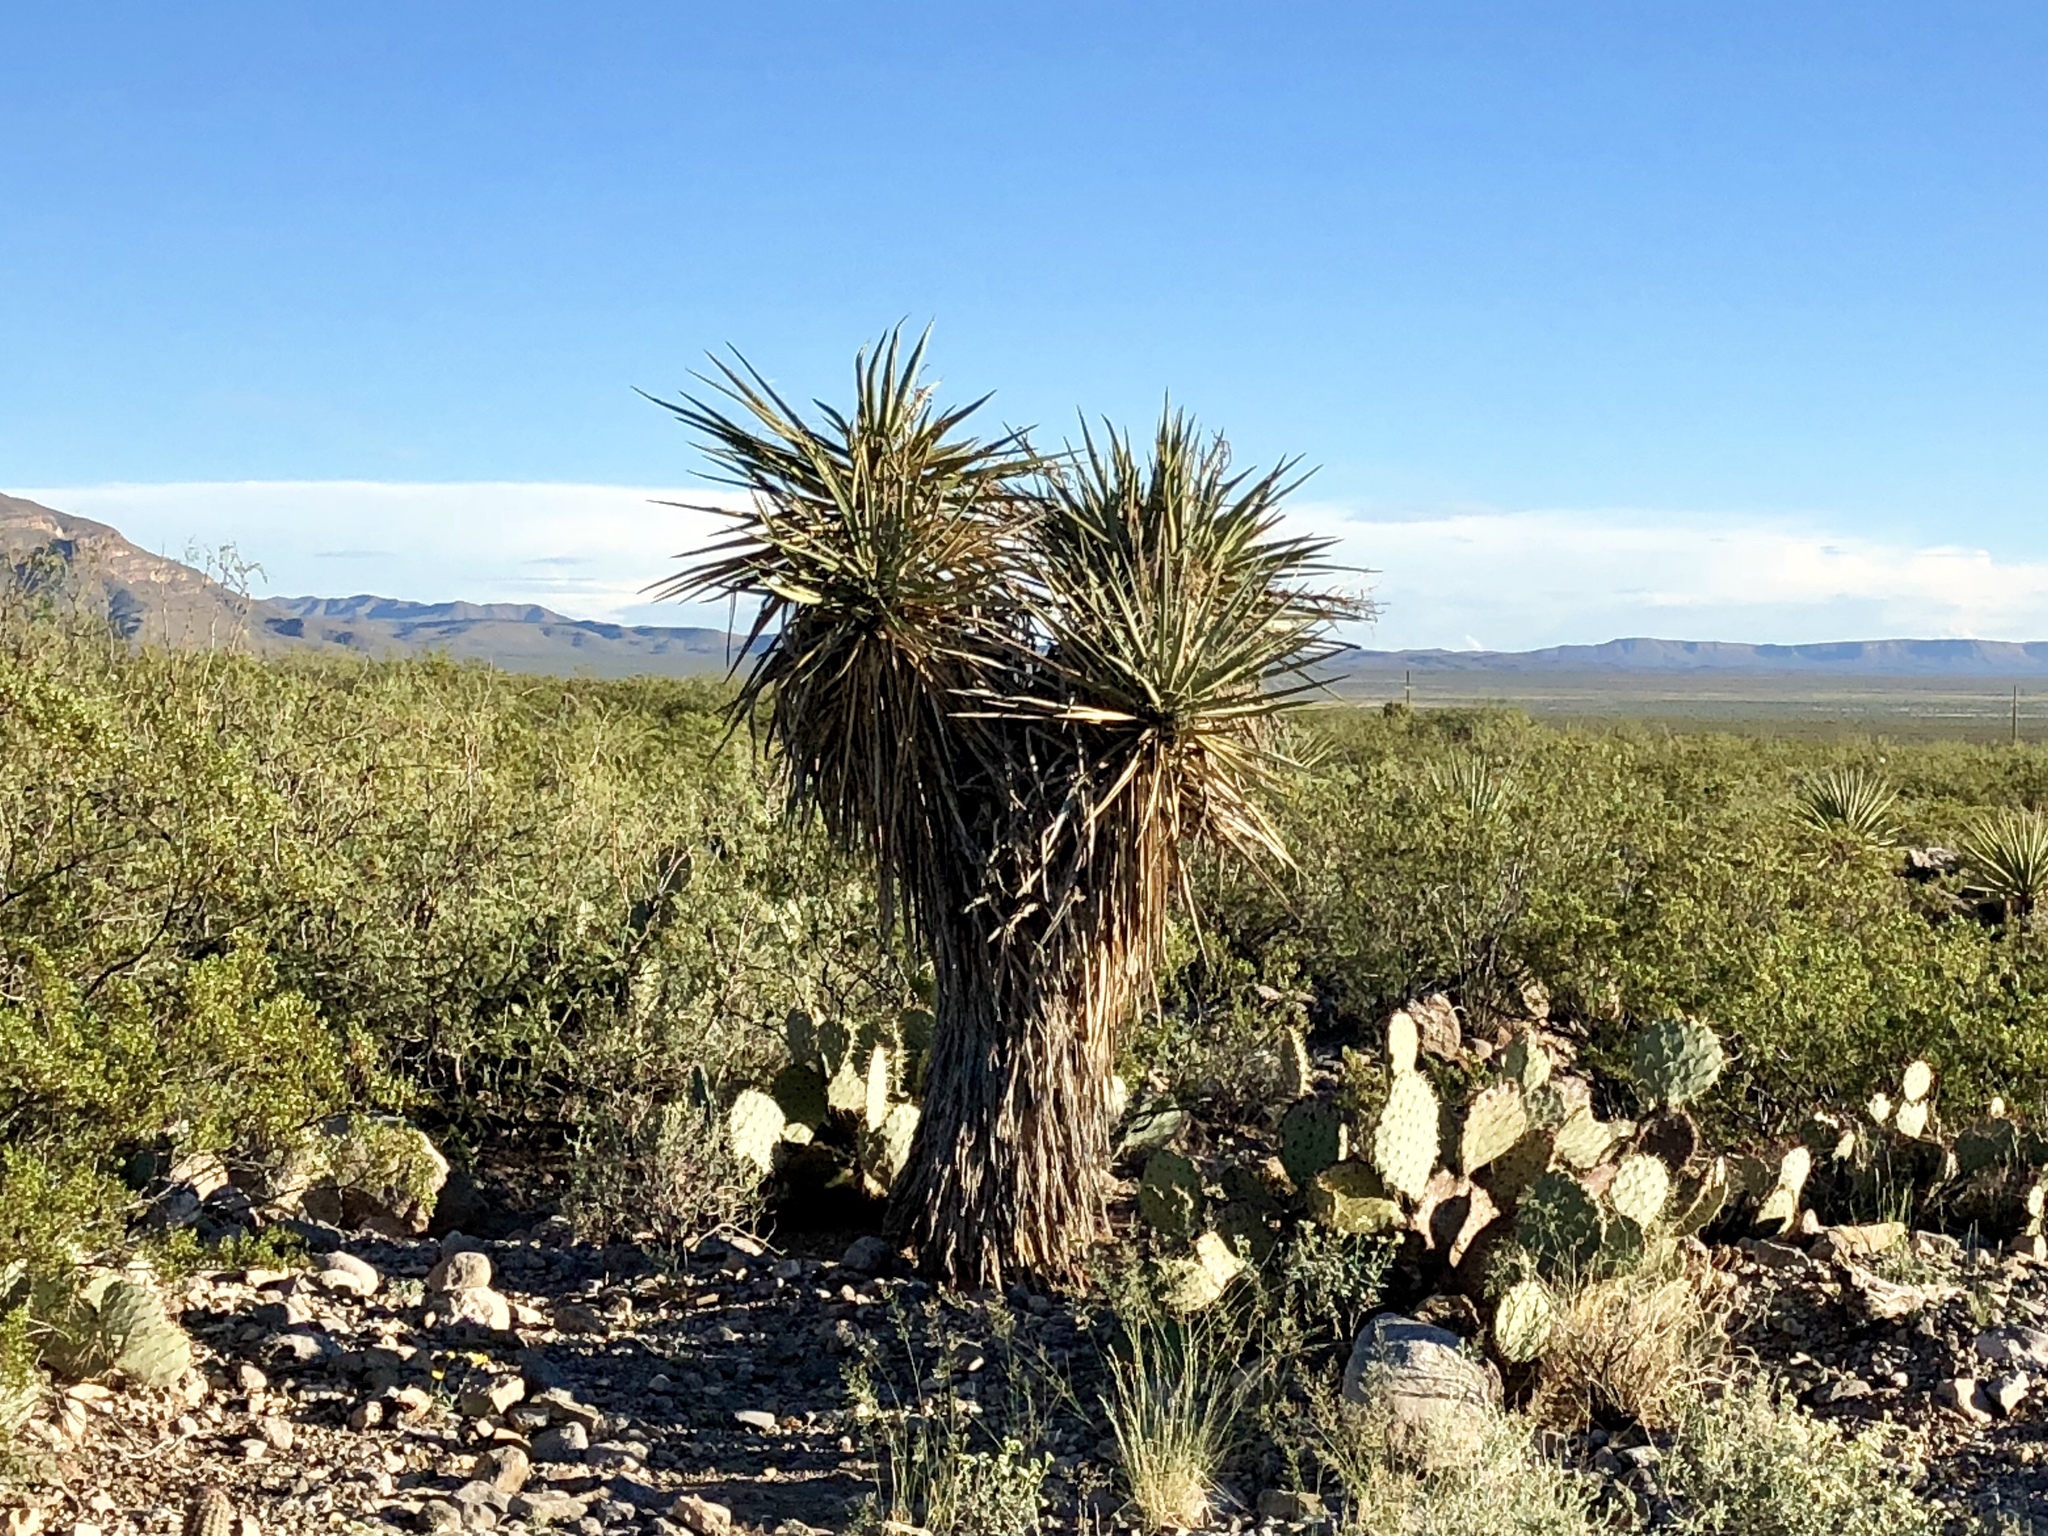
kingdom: Plantae
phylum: Tracheophyta
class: Liliopsida
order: Asparagales
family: Asparagaceae
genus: Yucca
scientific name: Yucca treculiana
